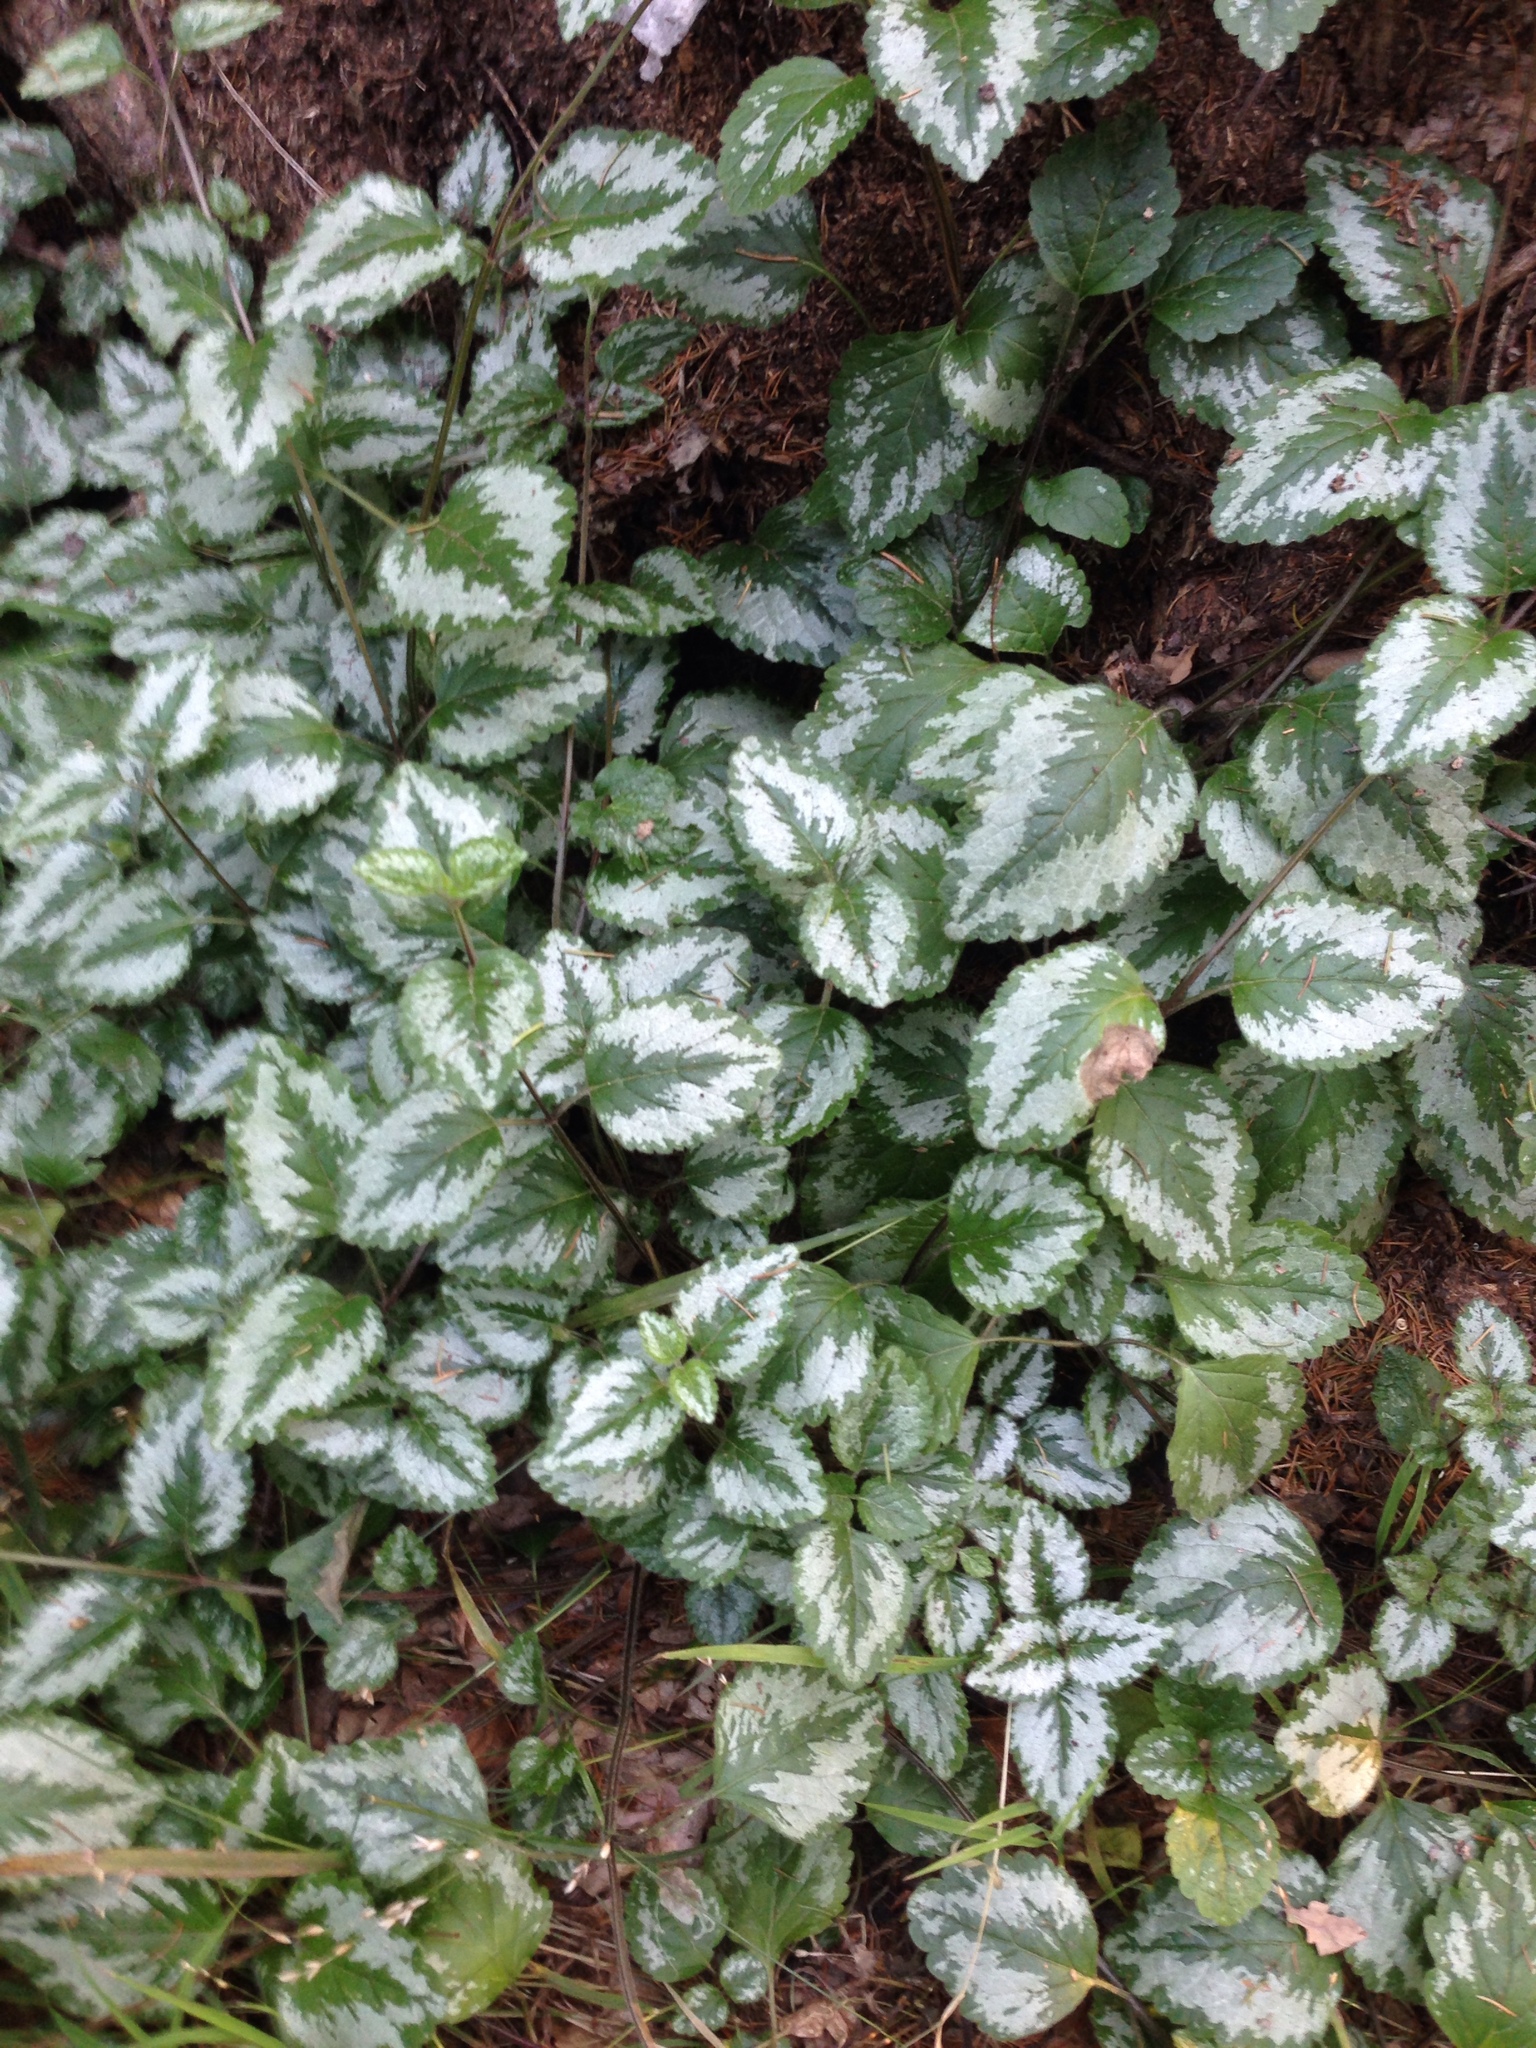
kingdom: Plantae
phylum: Tracheophyta
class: Magnoliopsida
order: Lamiales
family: Lamiaceae
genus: Lamium
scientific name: Lamium galeobdolon
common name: Yellow archangel
